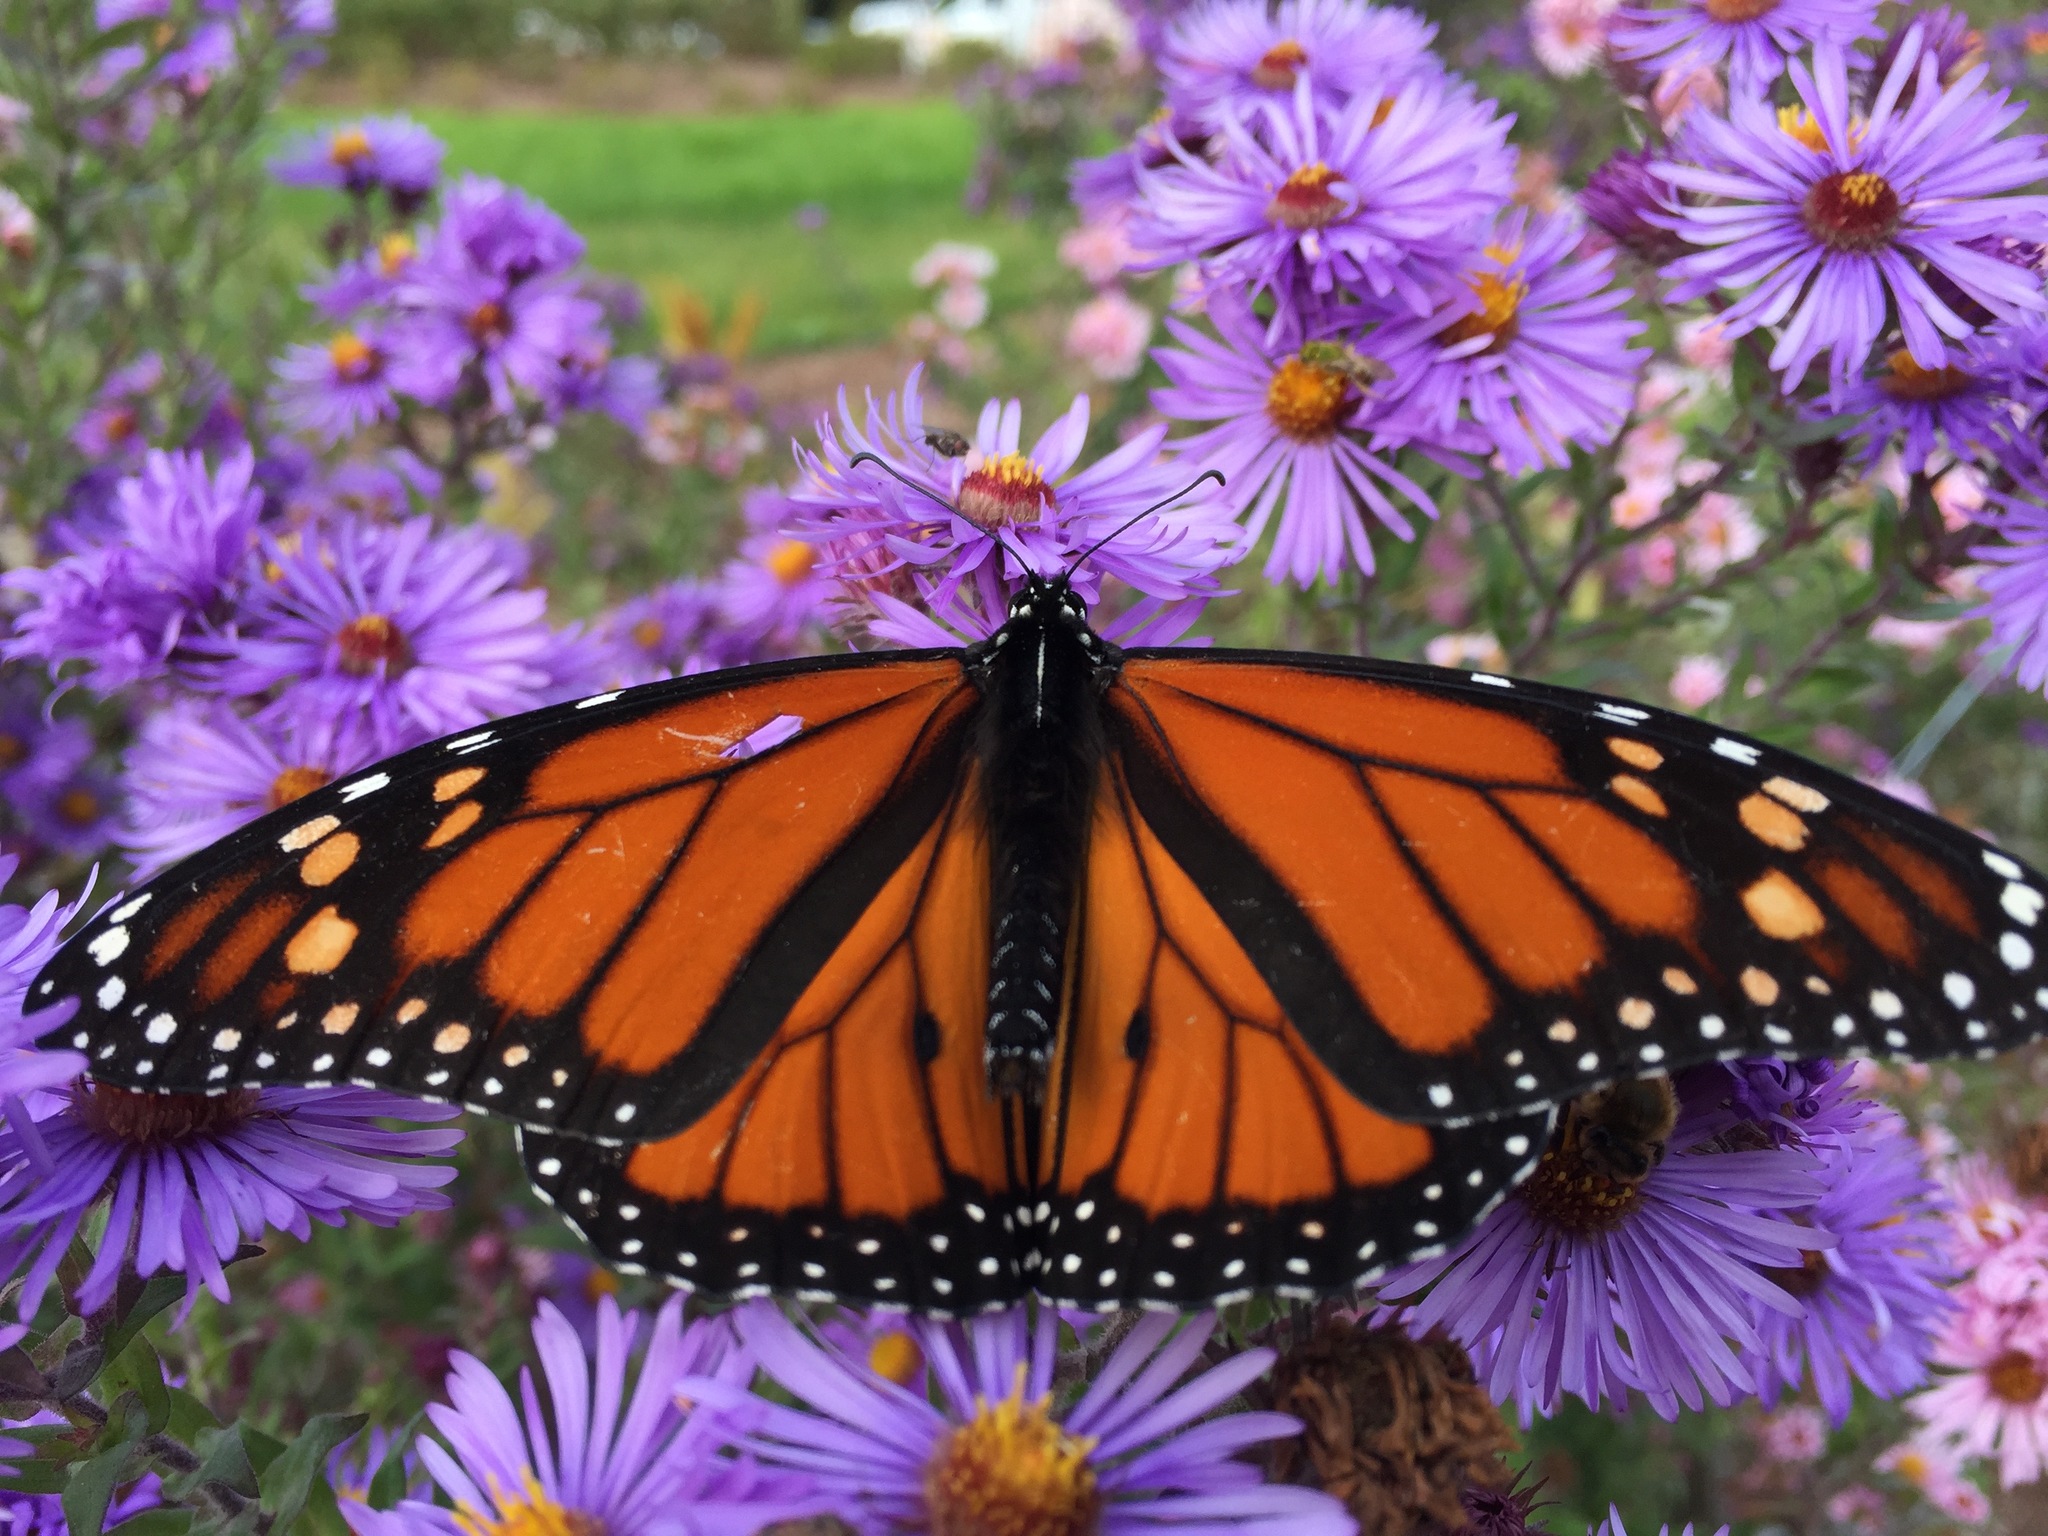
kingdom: Animalia
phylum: Arthropoda
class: Insecta
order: Lepidoptera
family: Nymphalidae
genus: Danaus
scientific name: Danaus plexippus
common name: Monarch
